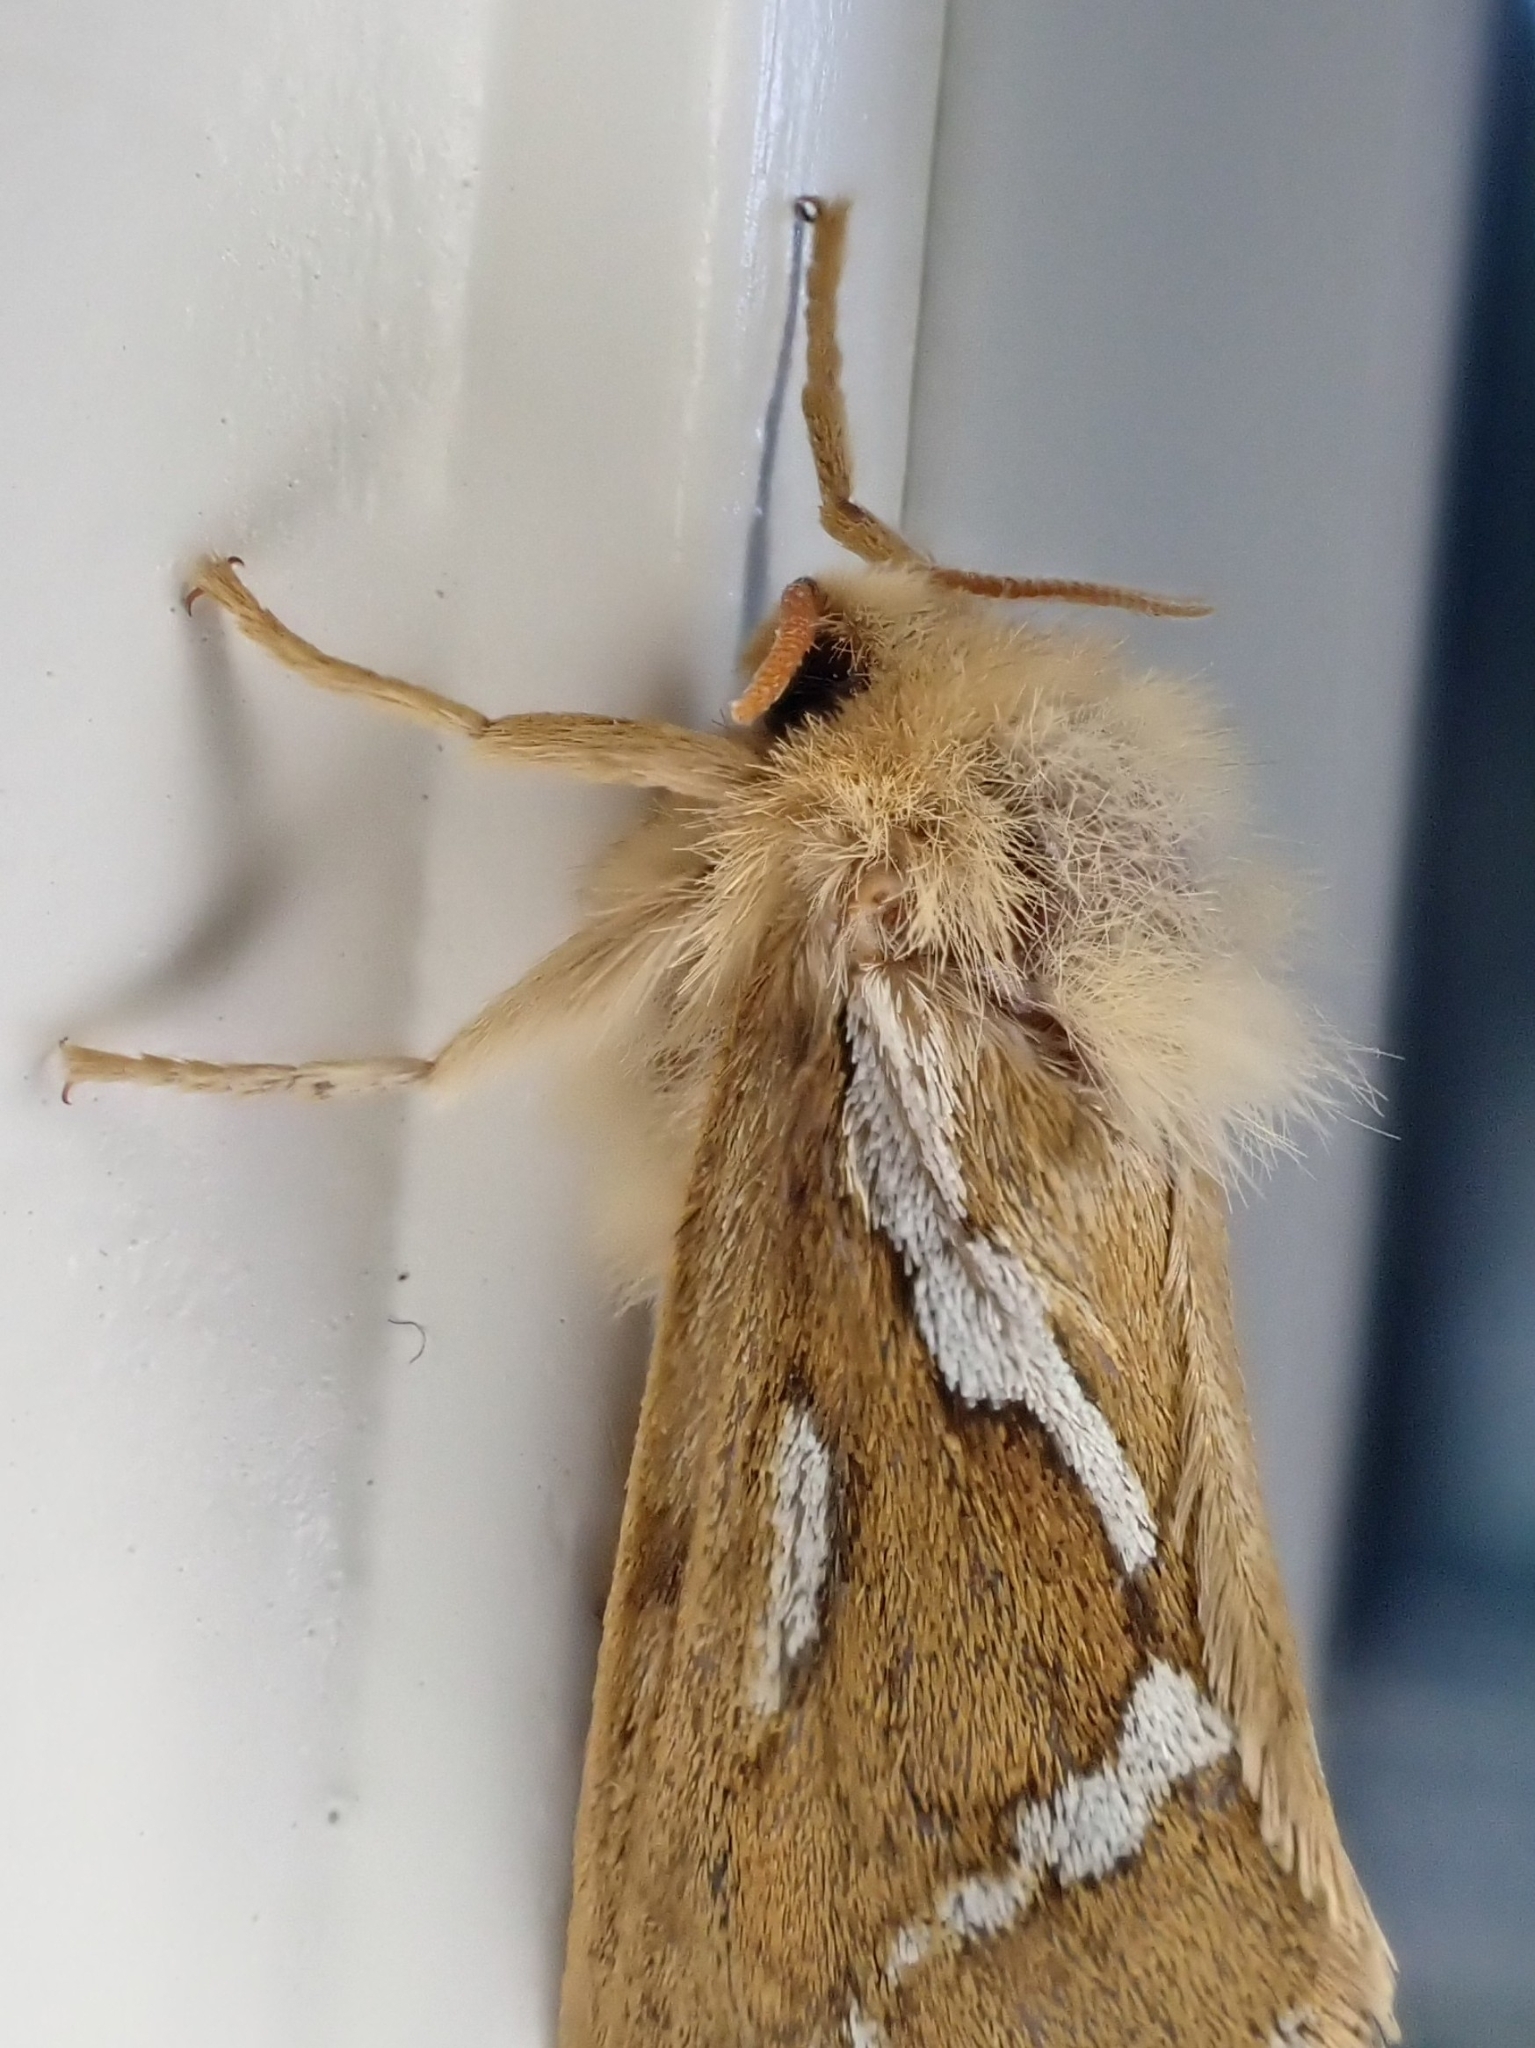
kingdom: Animalia
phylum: Arthropoda
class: Insecta
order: Lepidoptera
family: Hepialidae
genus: Korscheltellus
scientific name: Korscheltellus lupulina
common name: Common swift
